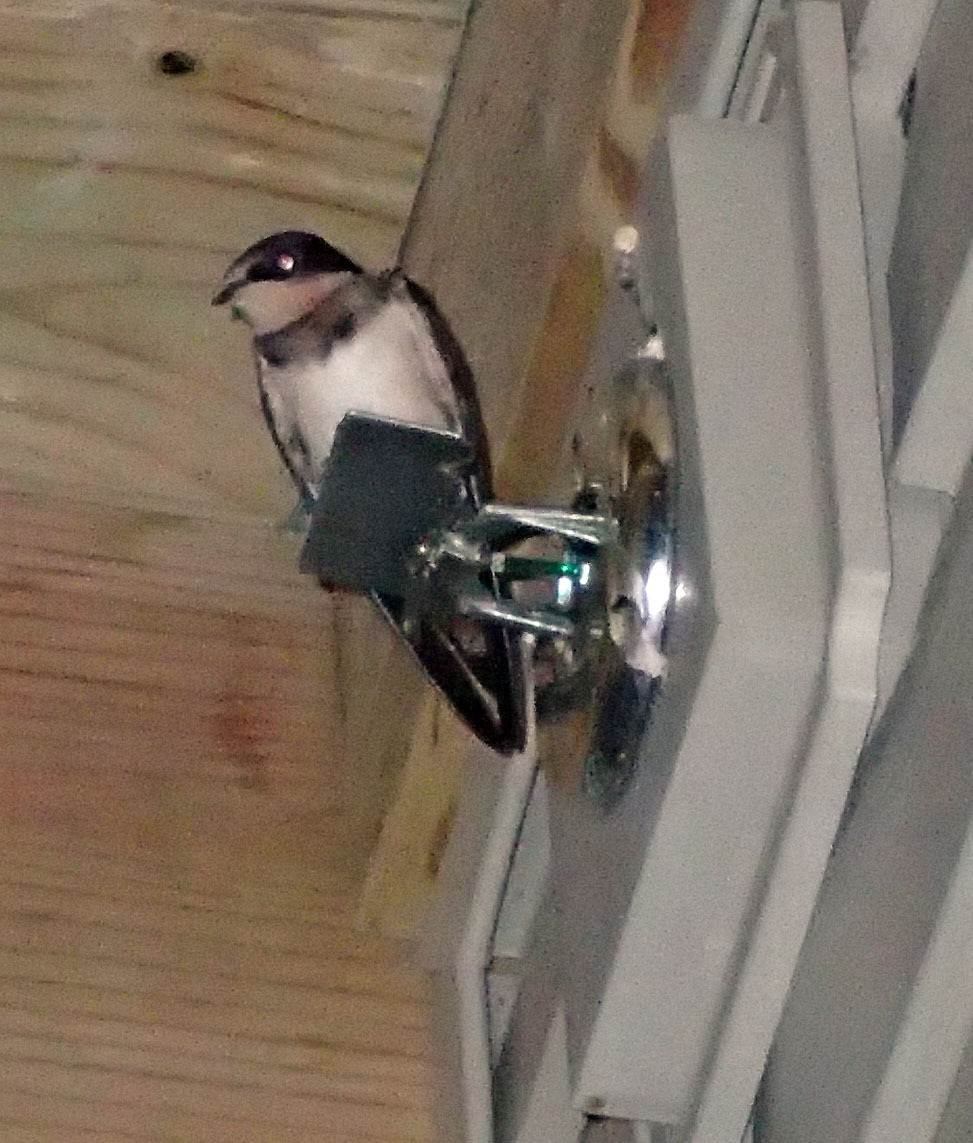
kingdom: Animalia
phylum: Chordata
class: Aves
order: Passeriformes
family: Hirundinidae
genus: Hirundo
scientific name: Hirundo rustica
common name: Barn swallow
